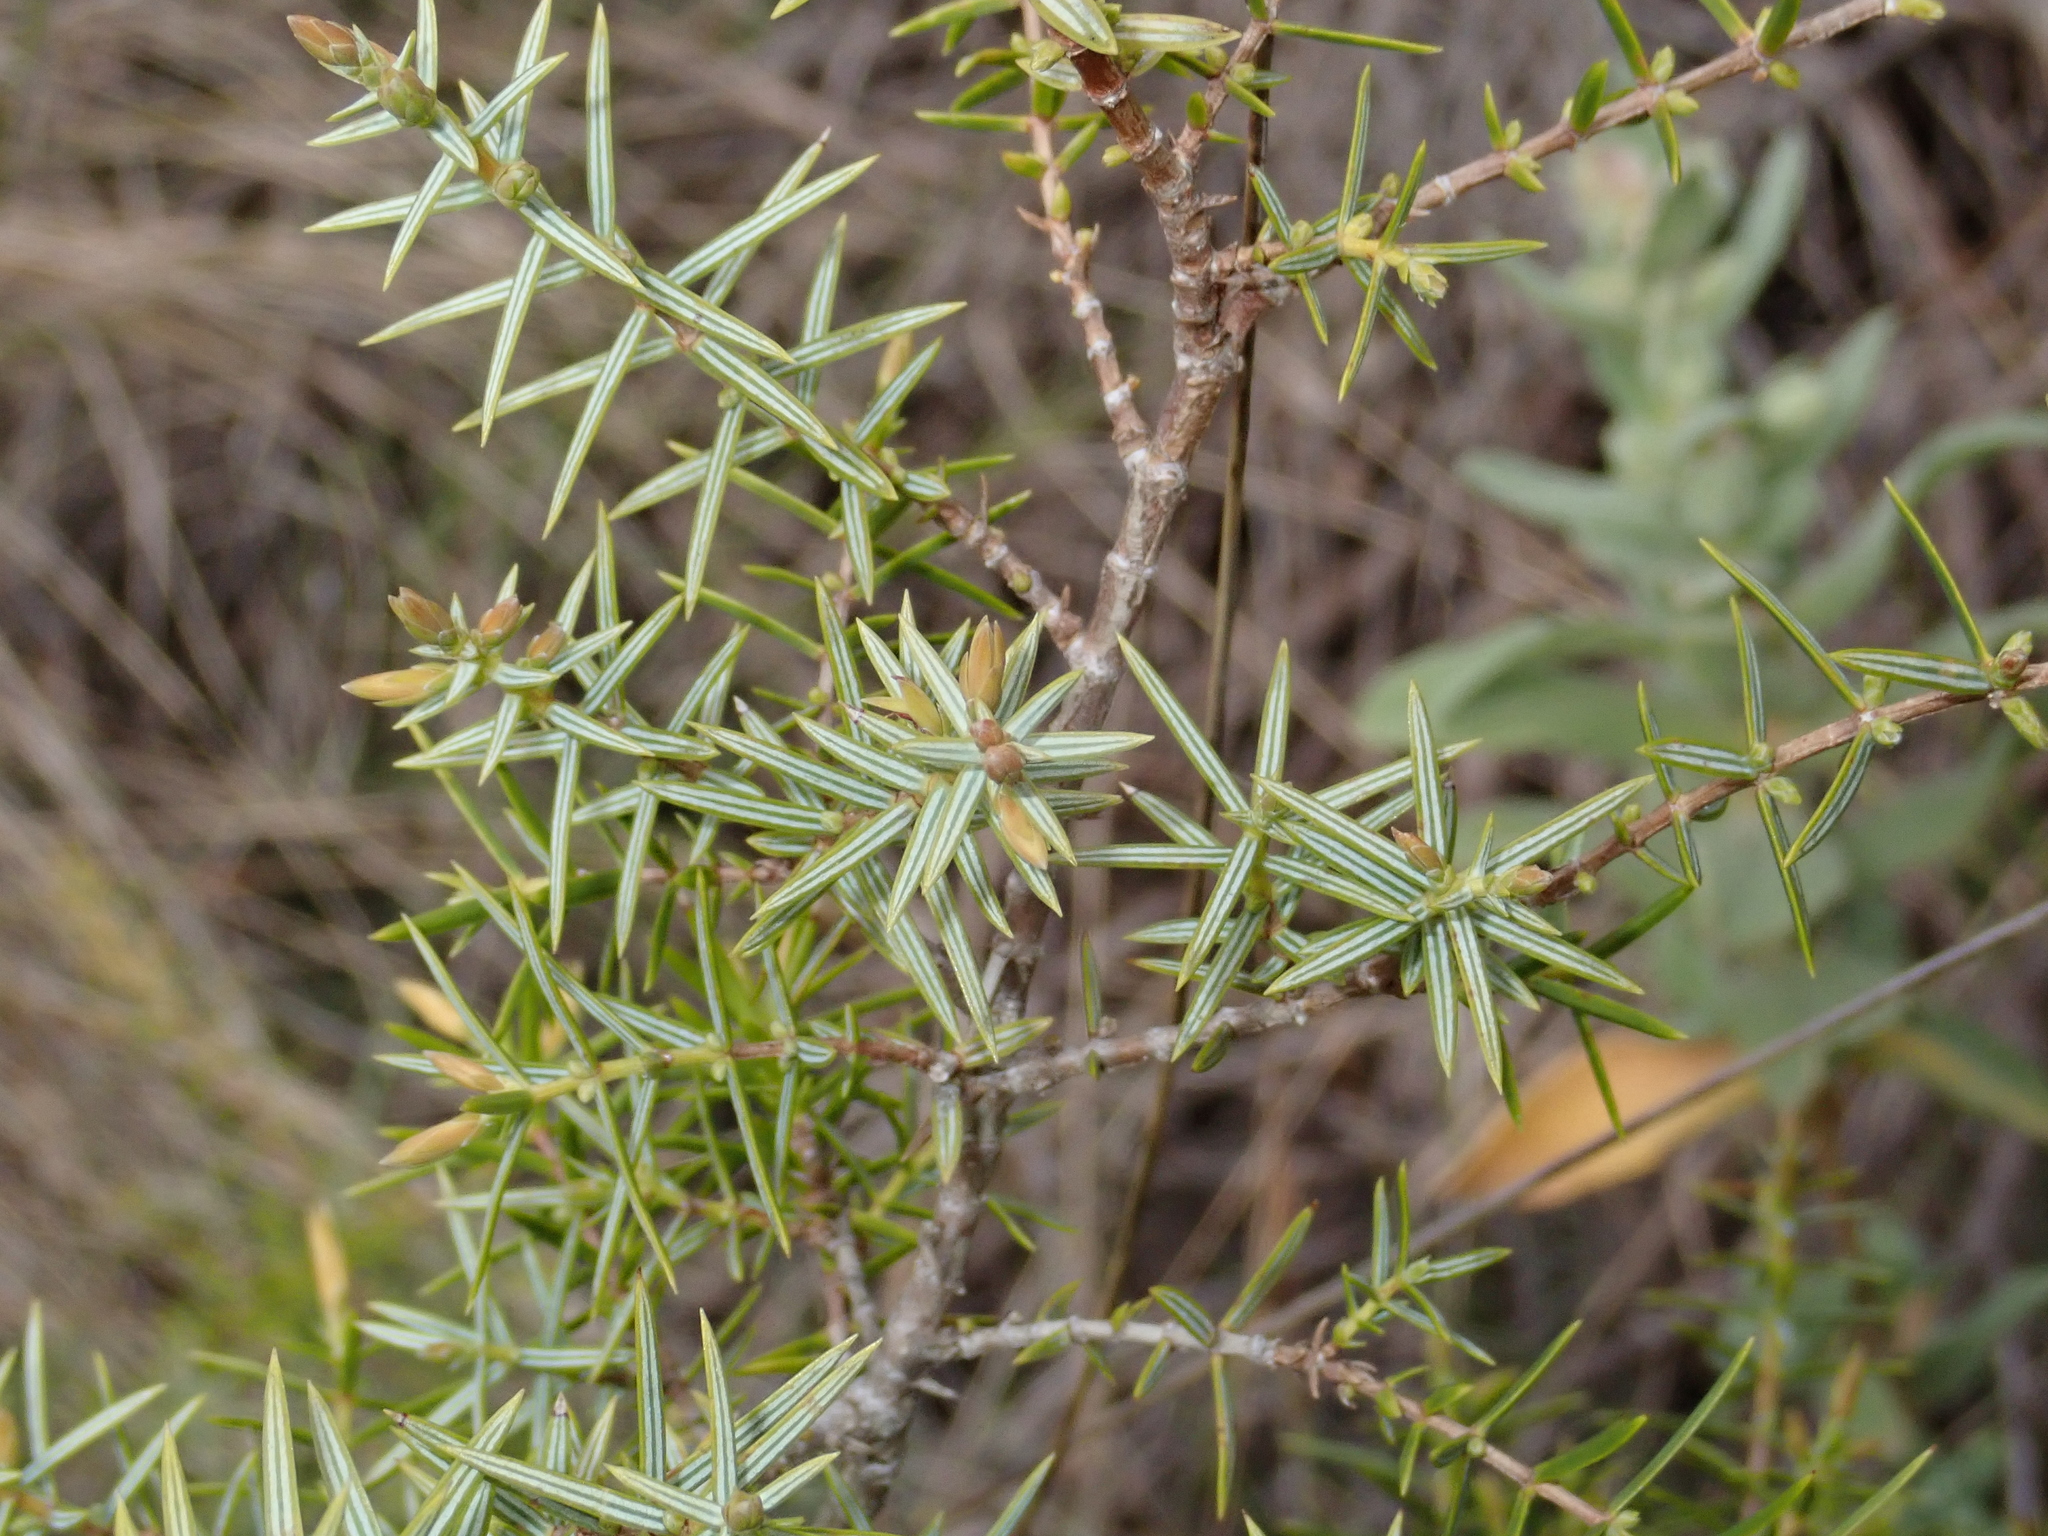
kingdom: Plantae
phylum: Tracheophyta
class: Pinopsida
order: Pinales
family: Cupressaceae
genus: Juniperus
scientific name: Juniperus oxycedrus
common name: Prickly juniper
